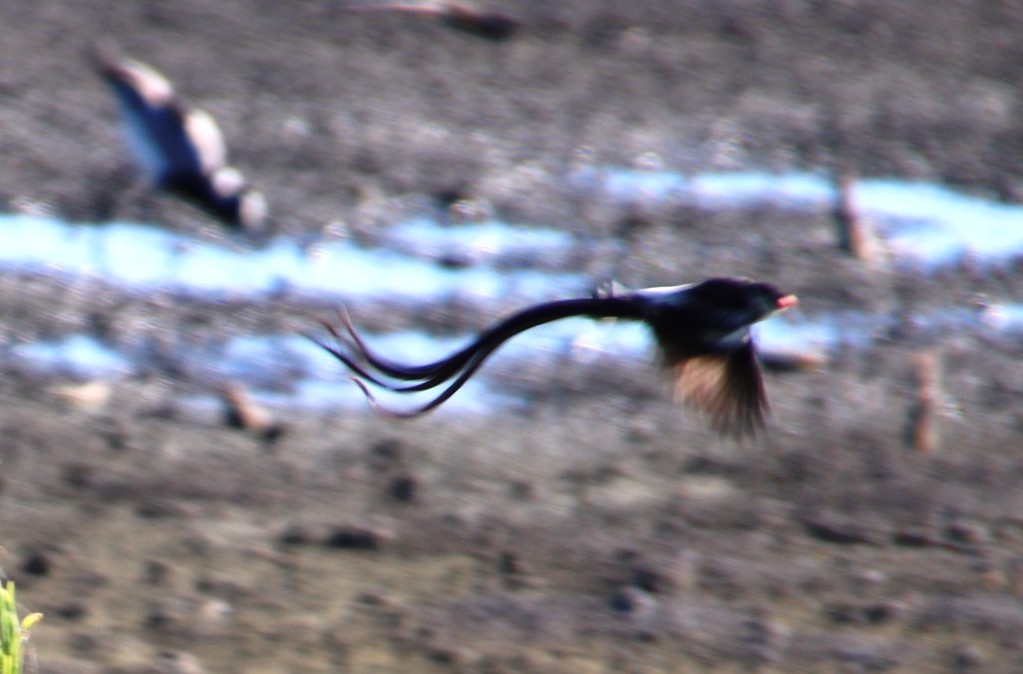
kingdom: Animalia
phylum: Chordata
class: Aves
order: Passeriformes
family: Viduidae
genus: Vidua
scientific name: Vidua macroura
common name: Pin-tailed whydah
